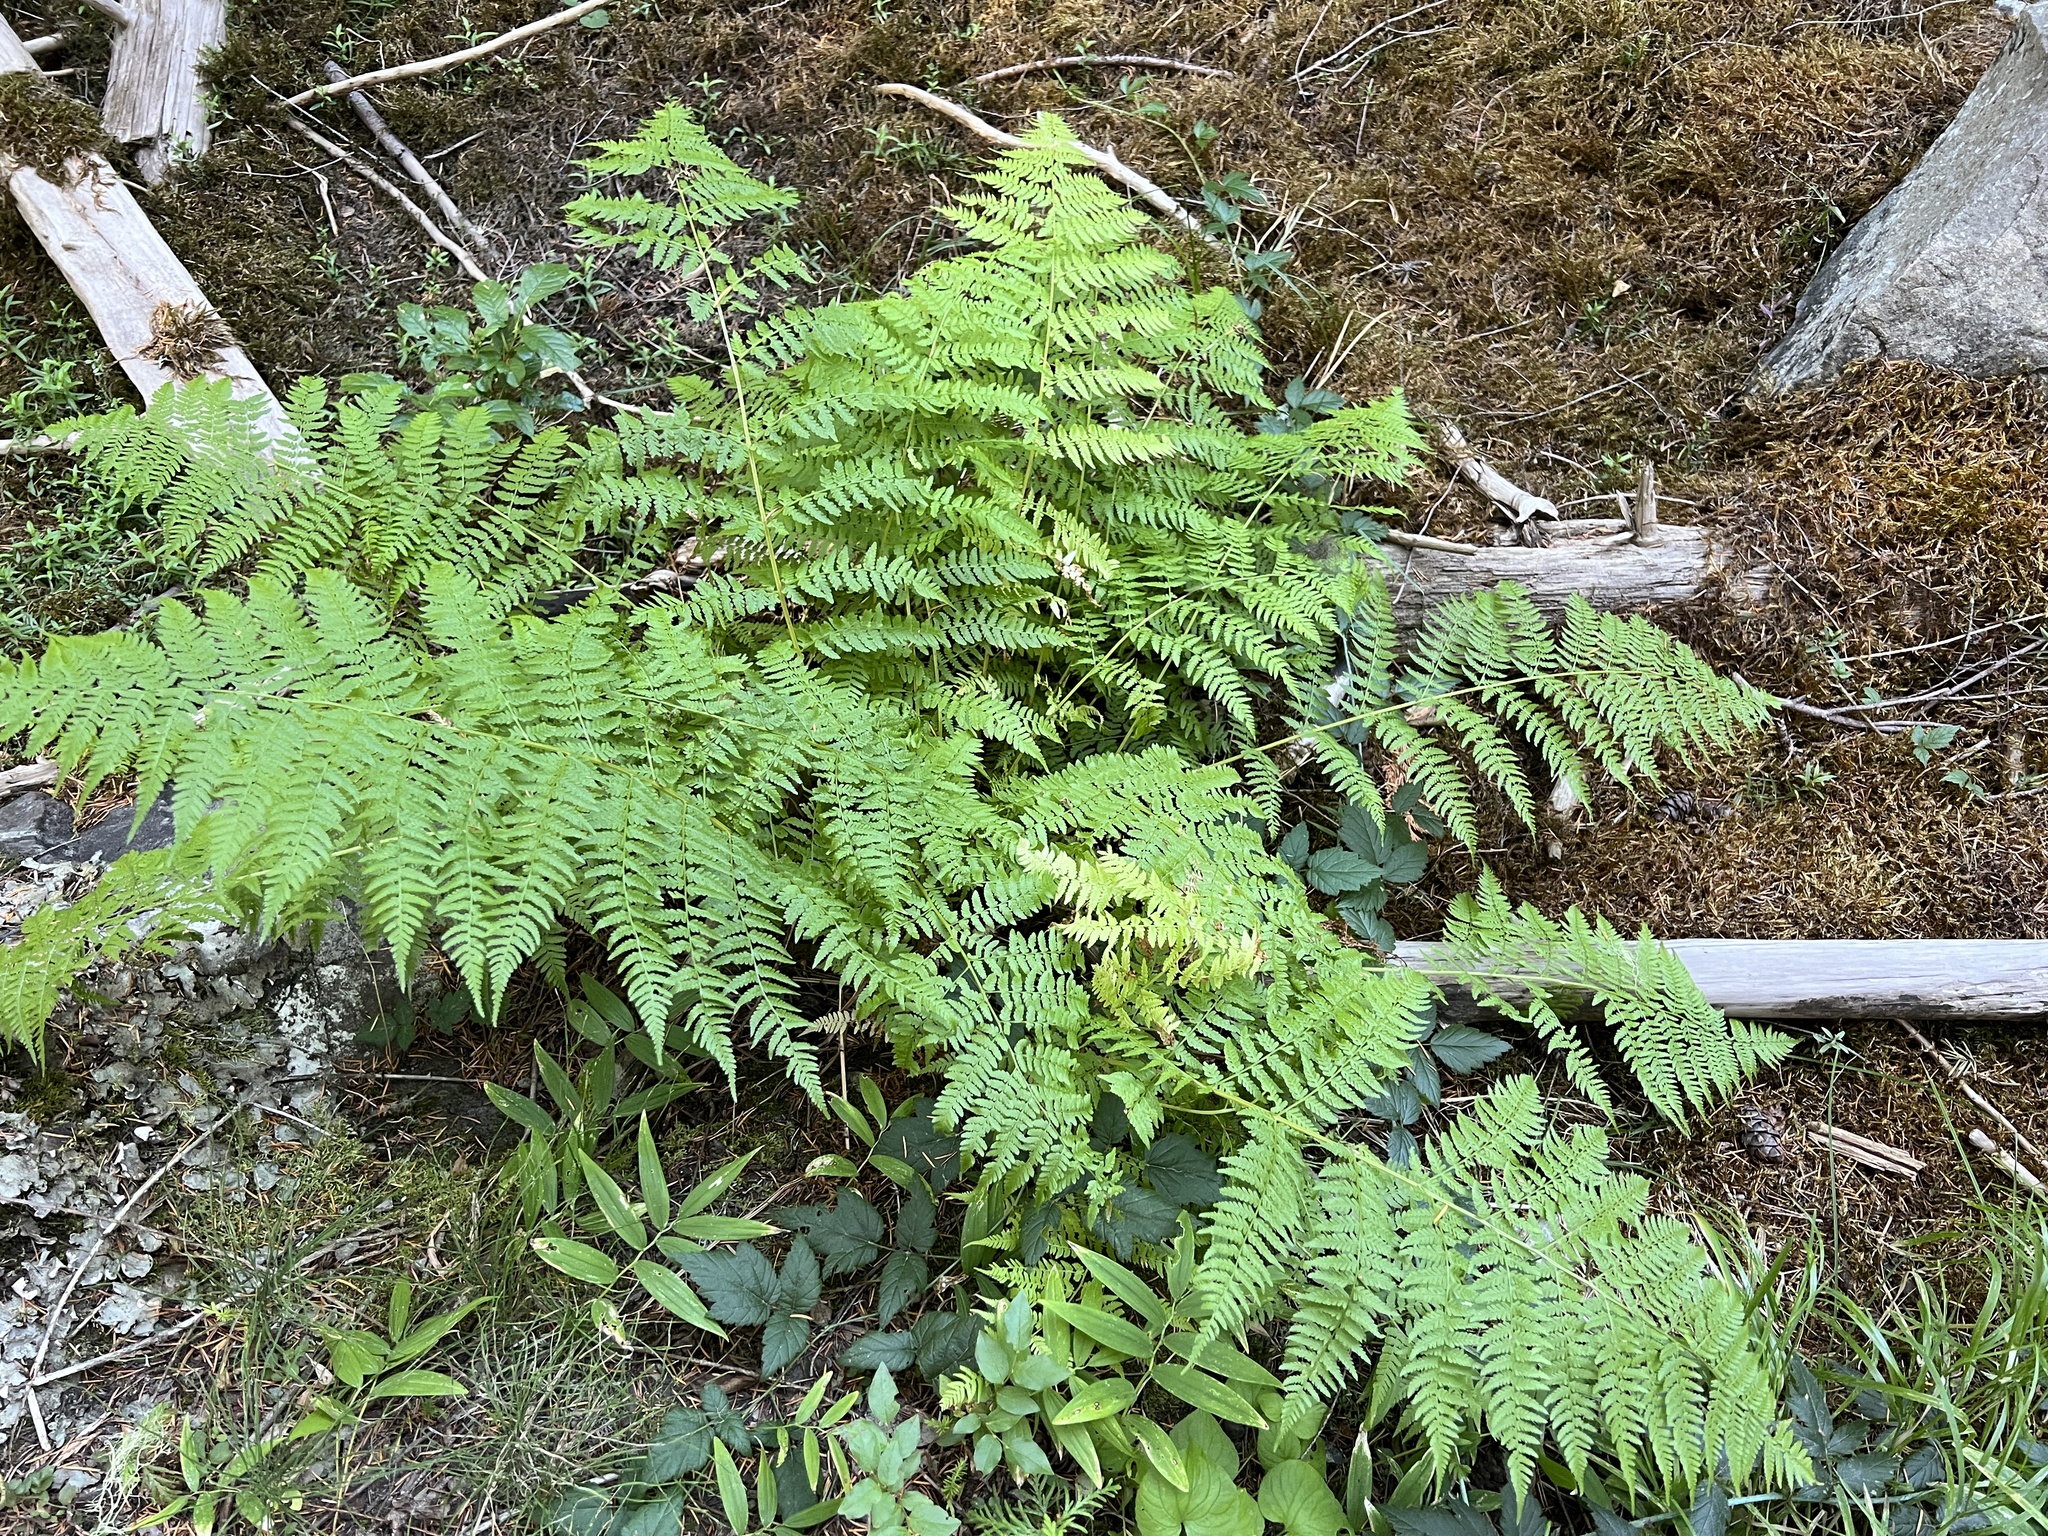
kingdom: Plantae
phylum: Tracheophyta
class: Polypodiopsida
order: Polypodiales
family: Athyriaceae
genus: Athyrium
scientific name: Athyrium filix-femina
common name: Lady fern
